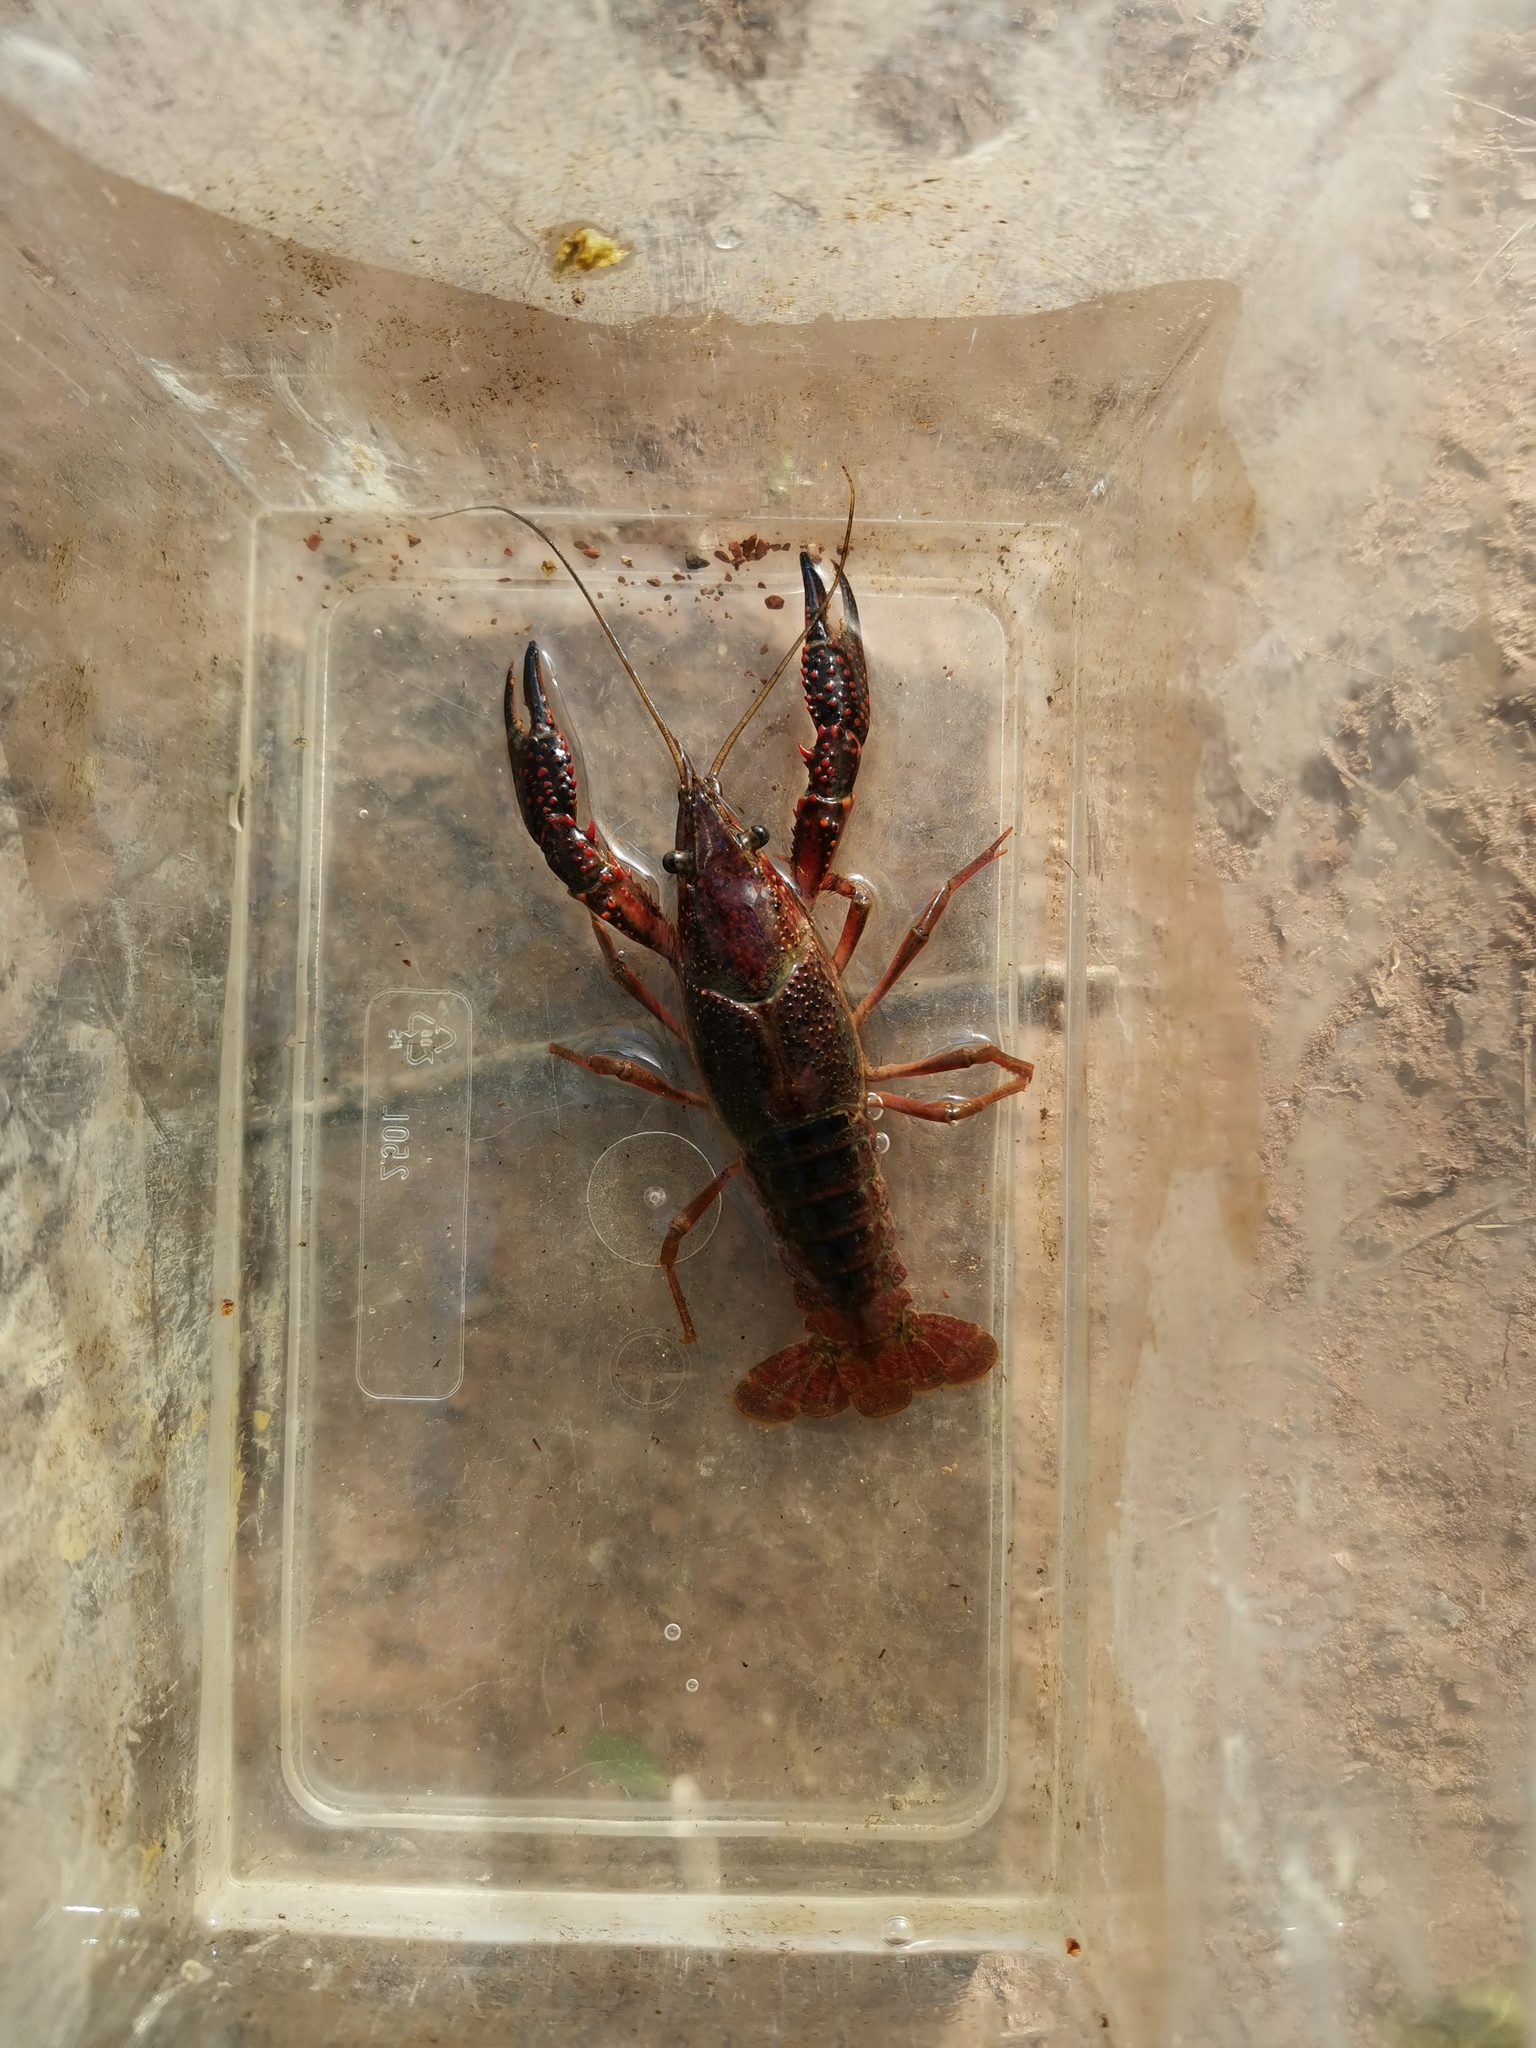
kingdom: Animalia
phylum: Arthropoda
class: Malacostraca
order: Decapoda
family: Cambaridae
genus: Procambarus
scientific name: Procambarus clarkii
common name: Red swamp crayfish
